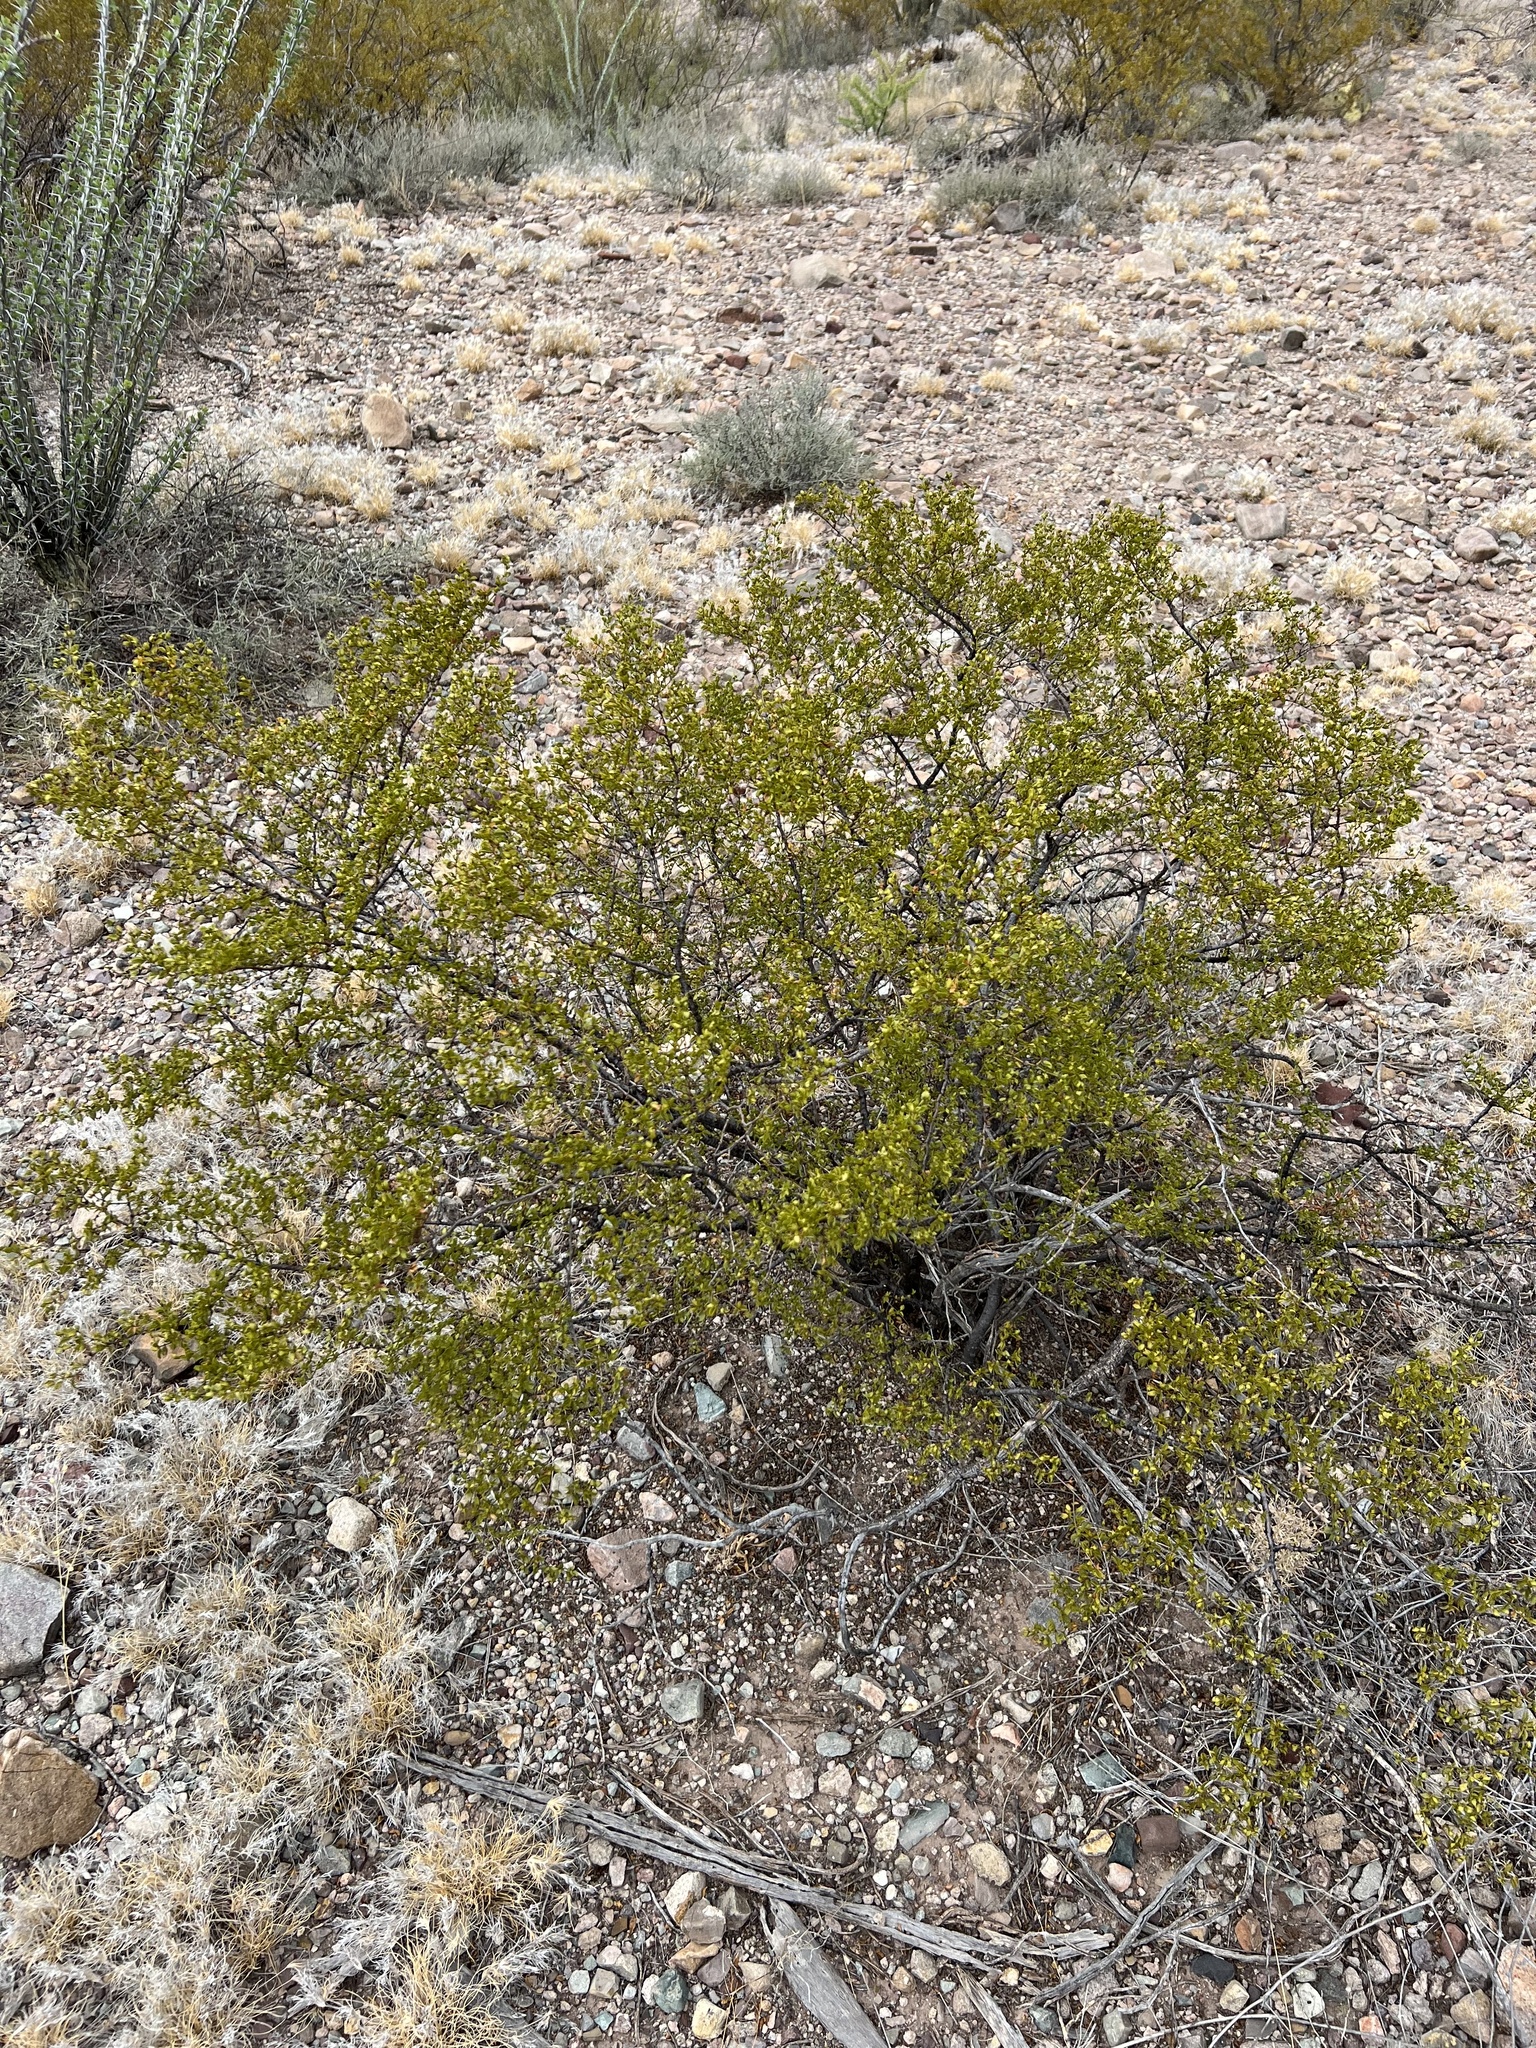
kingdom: Plantae
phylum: Tracheophyta
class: Magnoliopsida
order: Zygophyllales
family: Zygophyllaceae
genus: Larrea
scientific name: Larrea tridentata
